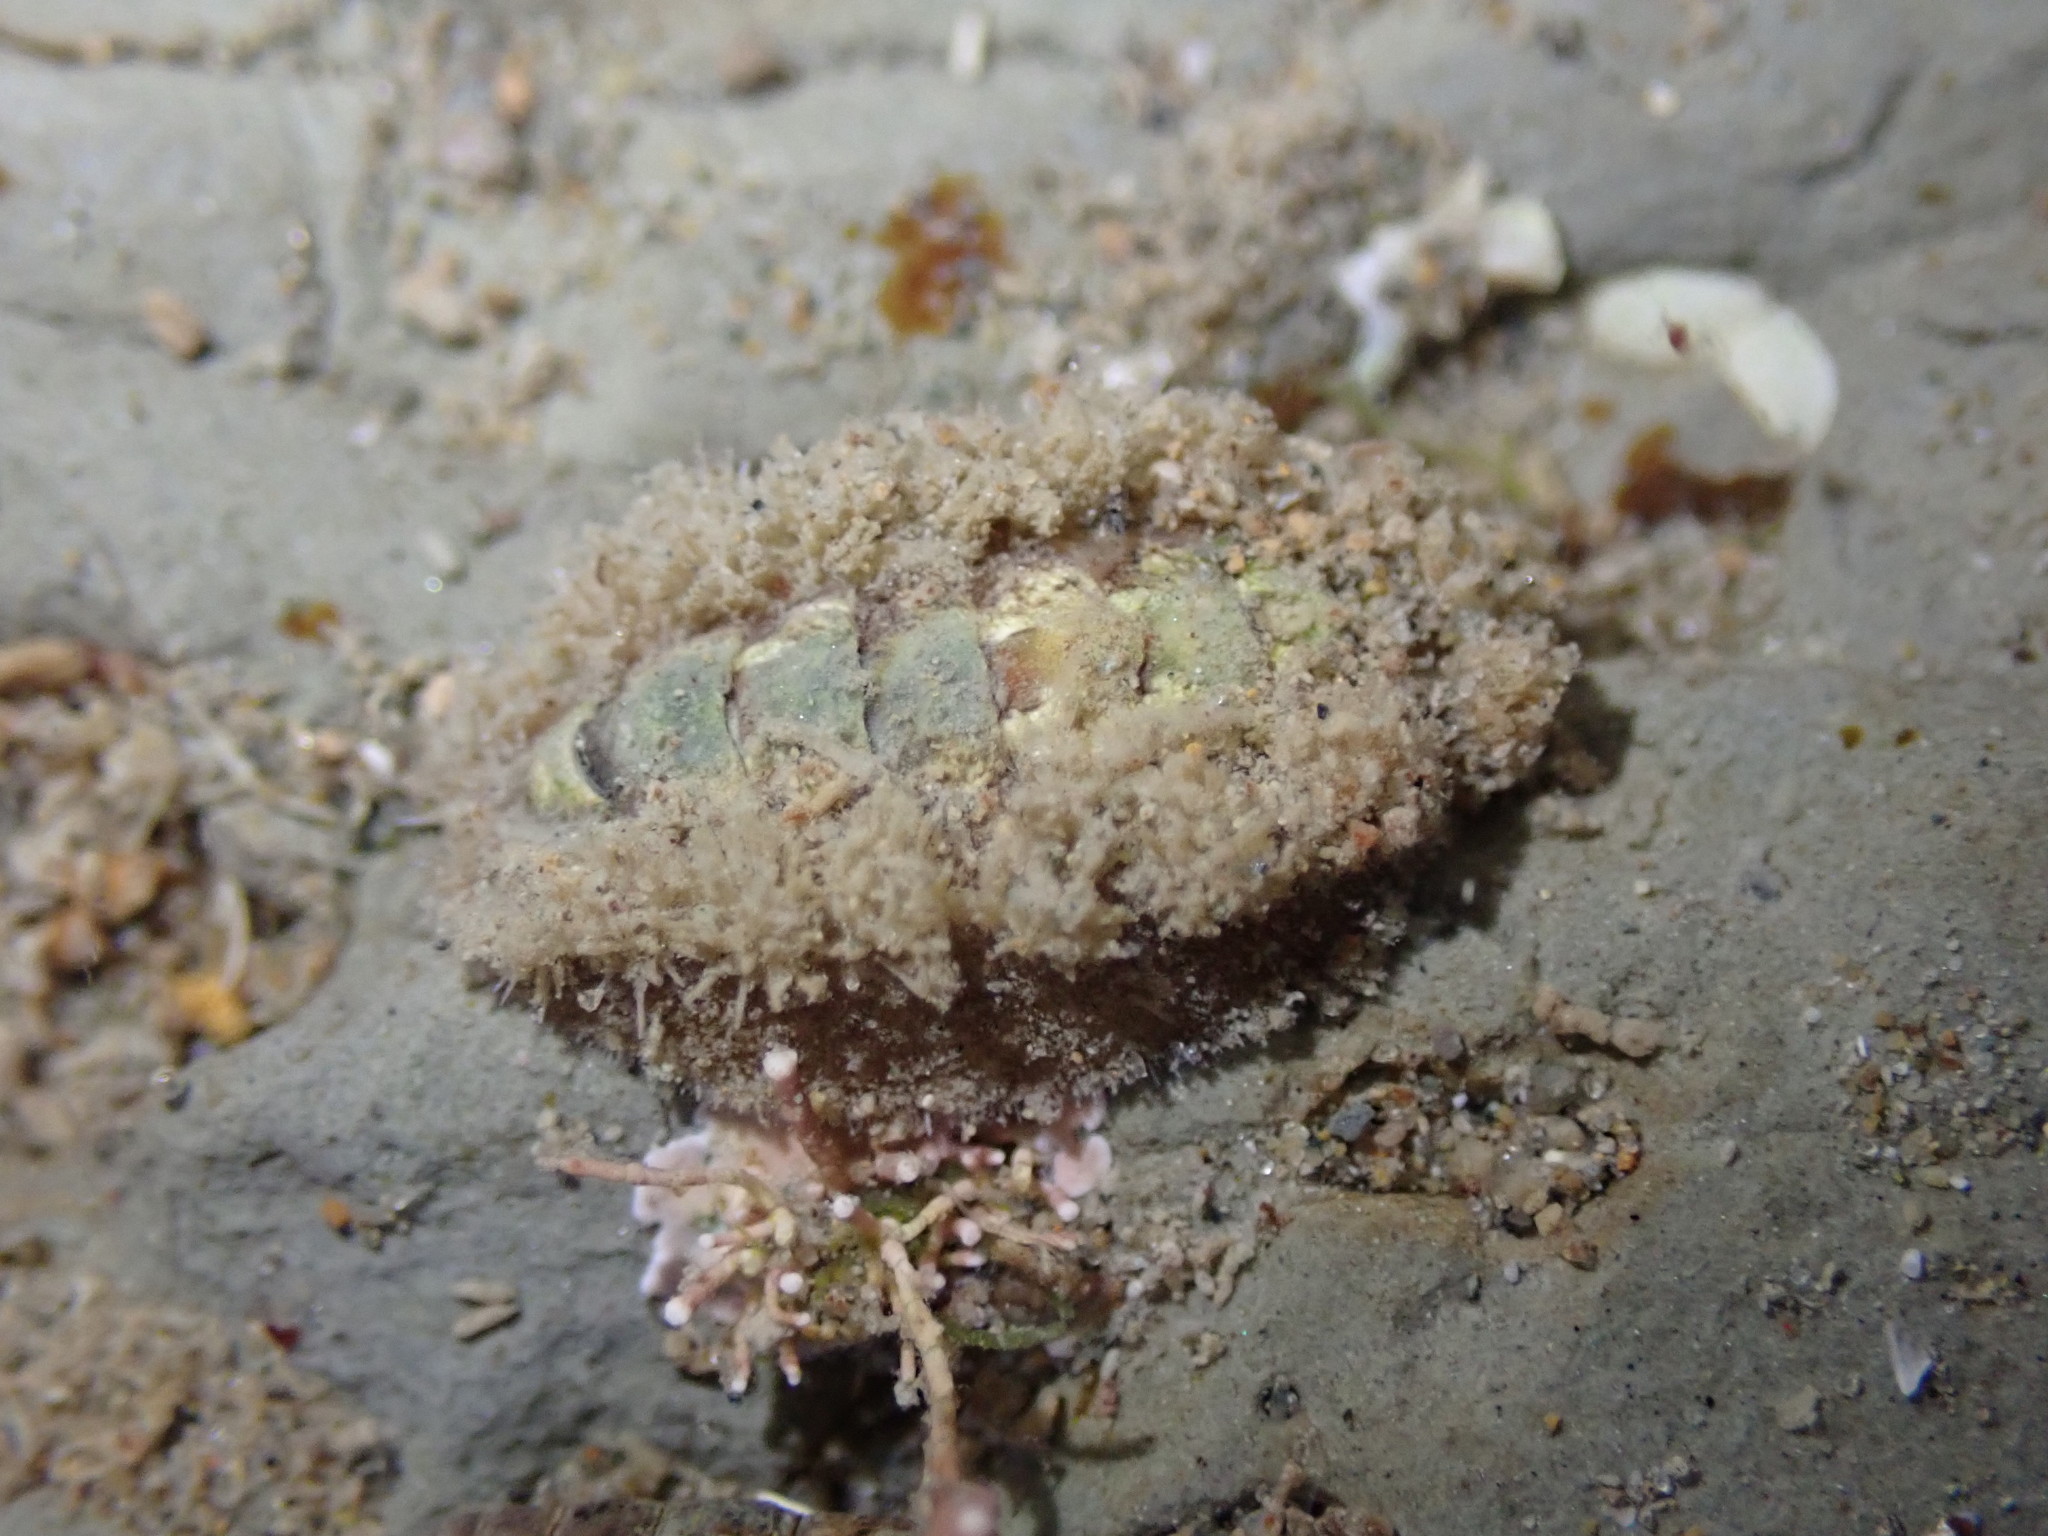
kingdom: Animalia
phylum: Mollusca
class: Polyplacophora
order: Chitonida
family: Acanthochitonidae
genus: Acanthochitona
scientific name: Acanthochitona zelandica
